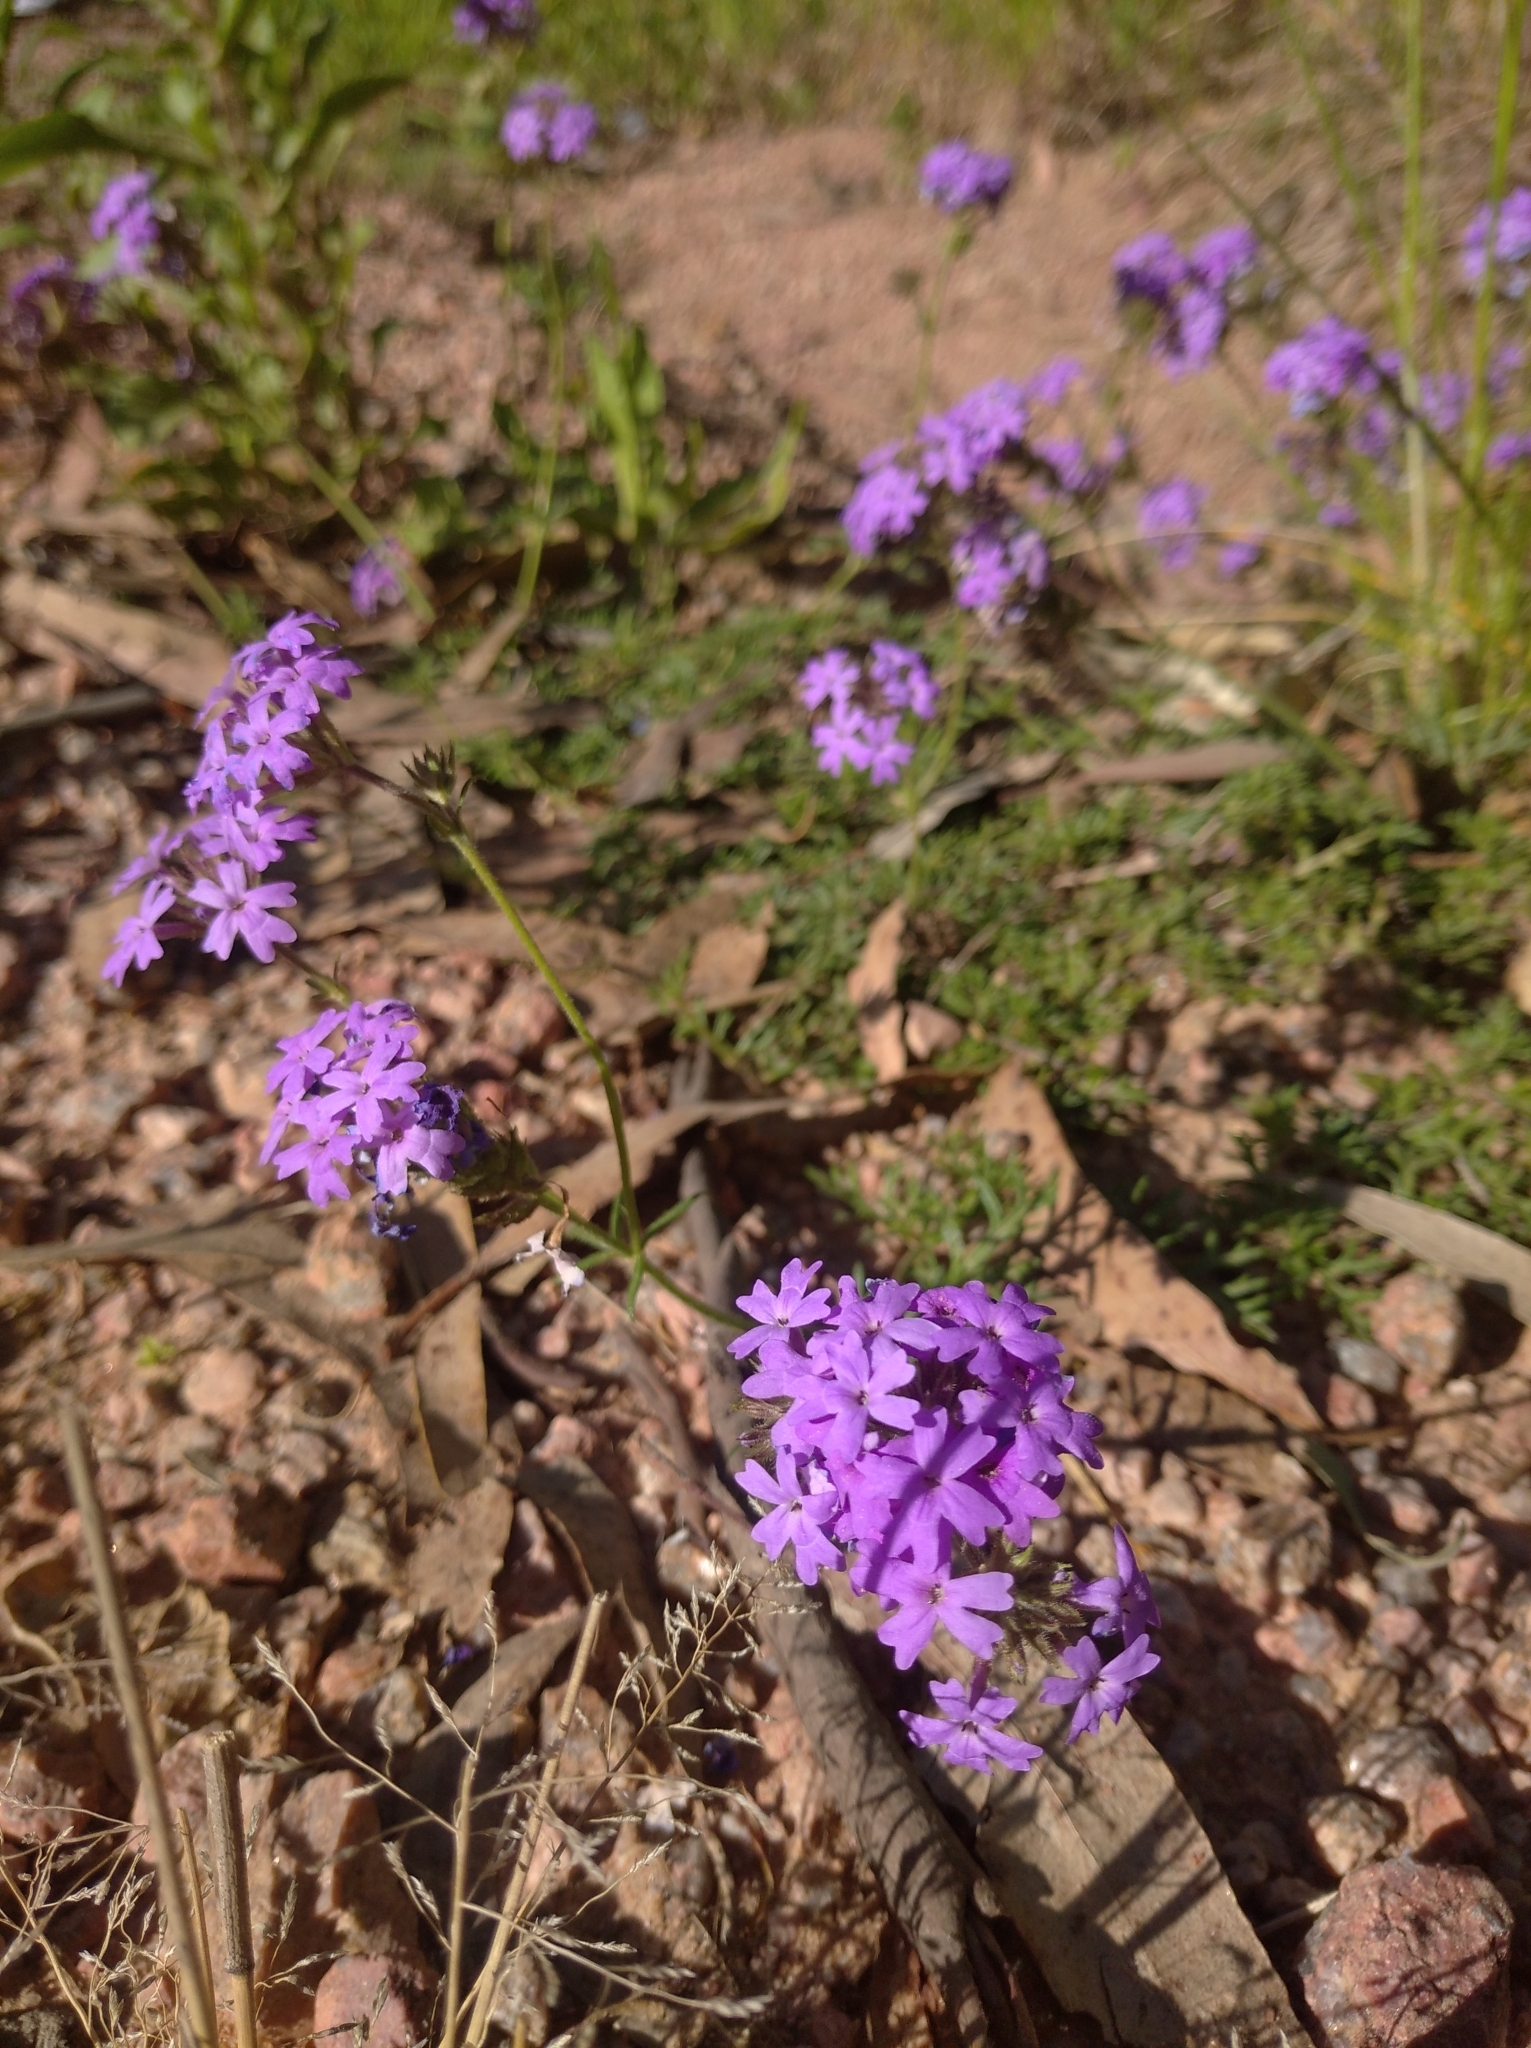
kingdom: Plantae
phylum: Tracheophyta
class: Magnoliopsida
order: Lamiales
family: Verbenaceae
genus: Verbena
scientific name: Verbena selloi
